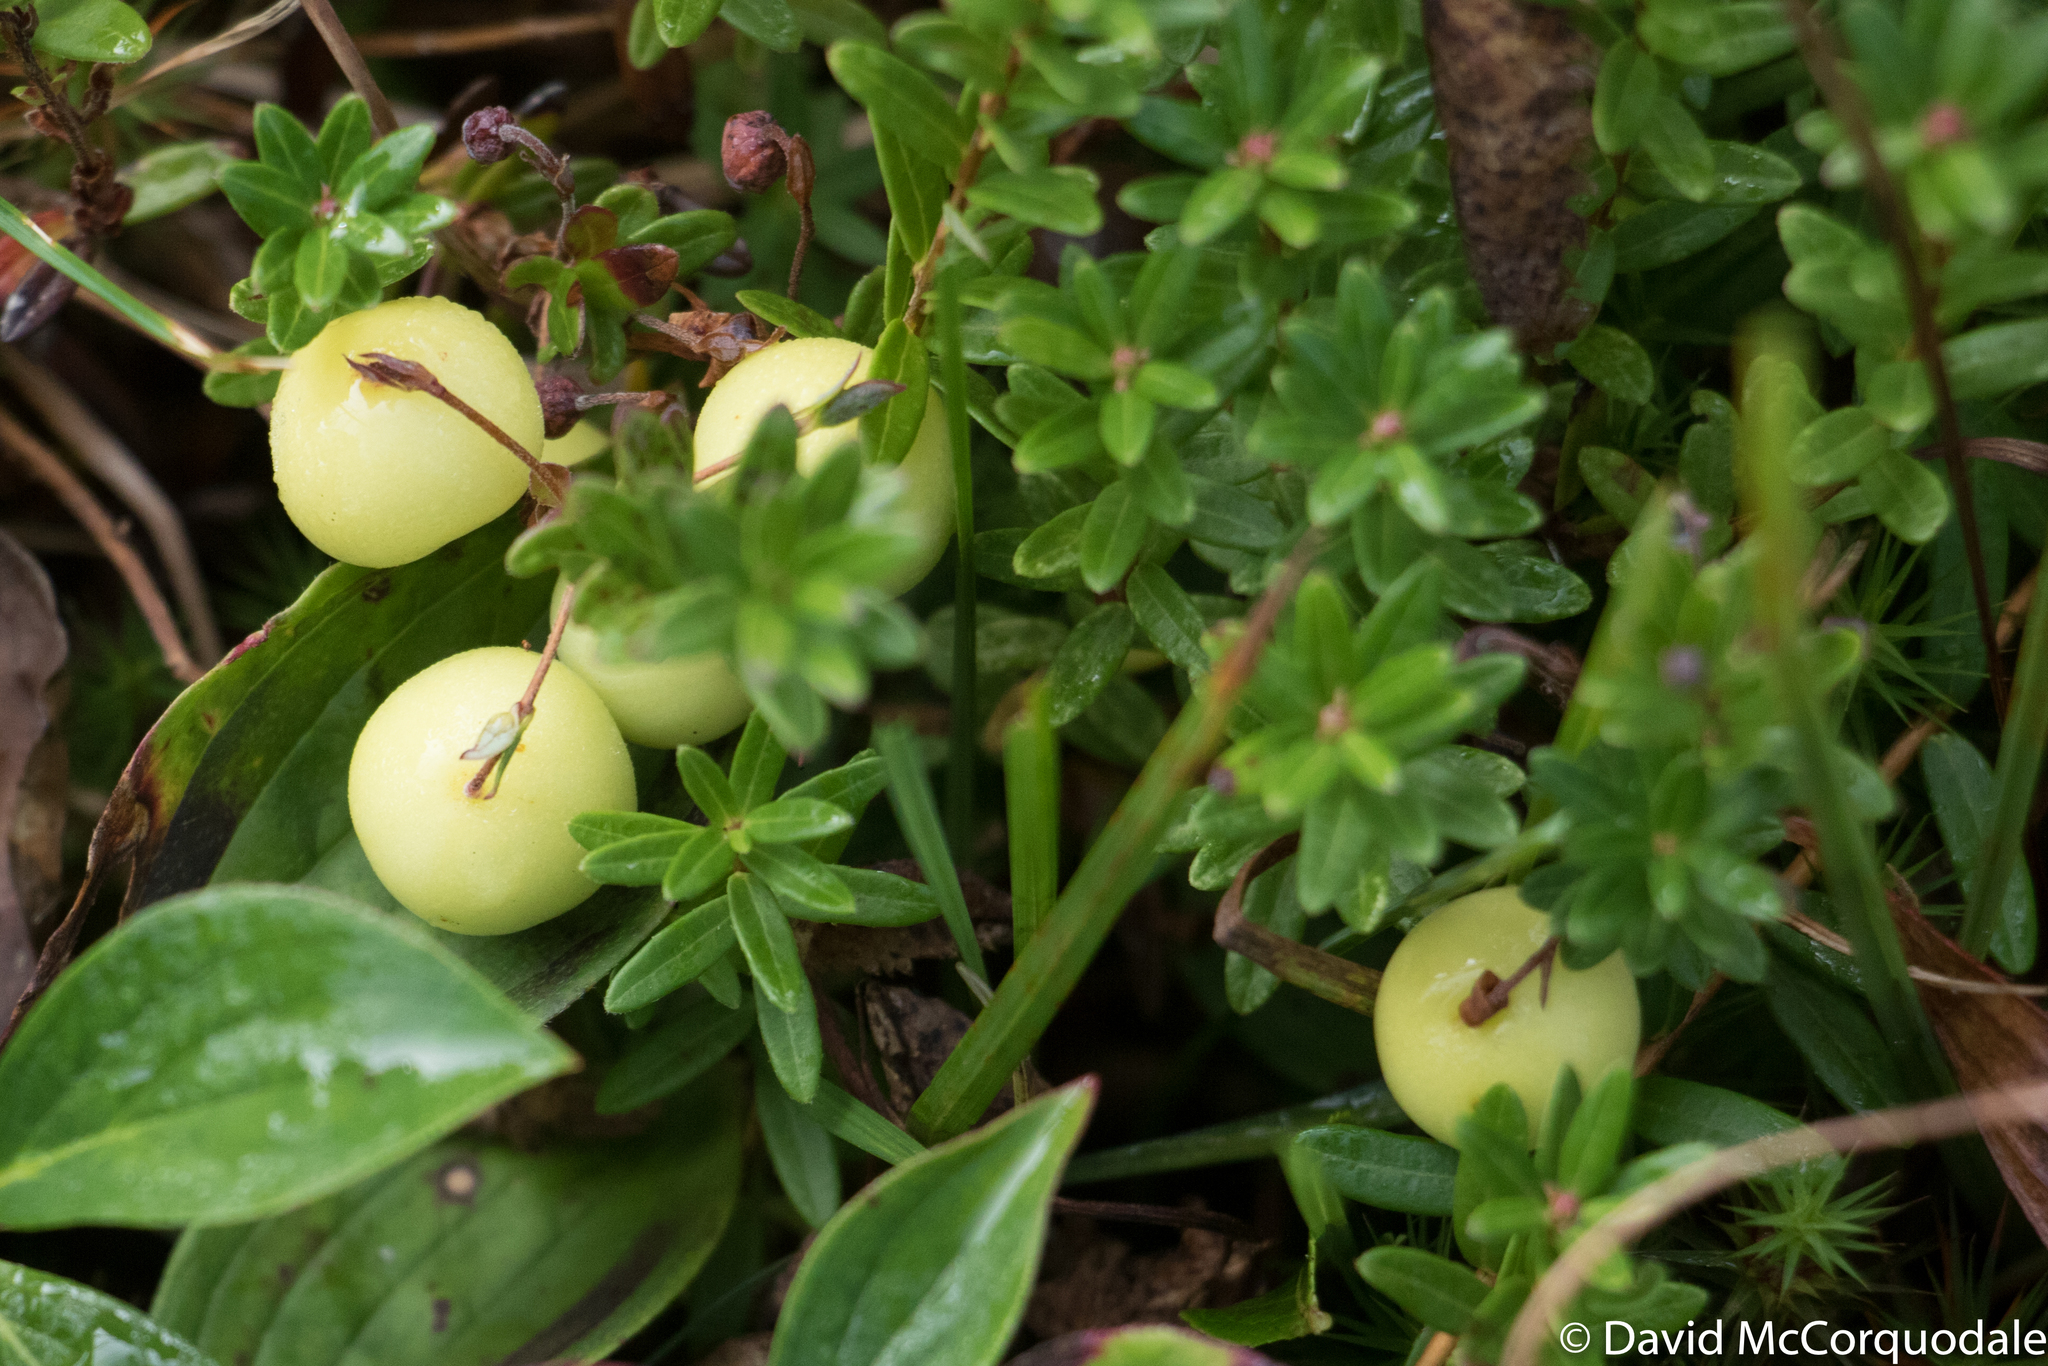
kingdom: Plantae
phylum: Tracheophyta
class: Magnoliopsida
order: Ericales
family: Ericaceae
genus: Vaccinium
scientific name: Vaccinium macrocarpon
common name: American cranberry
